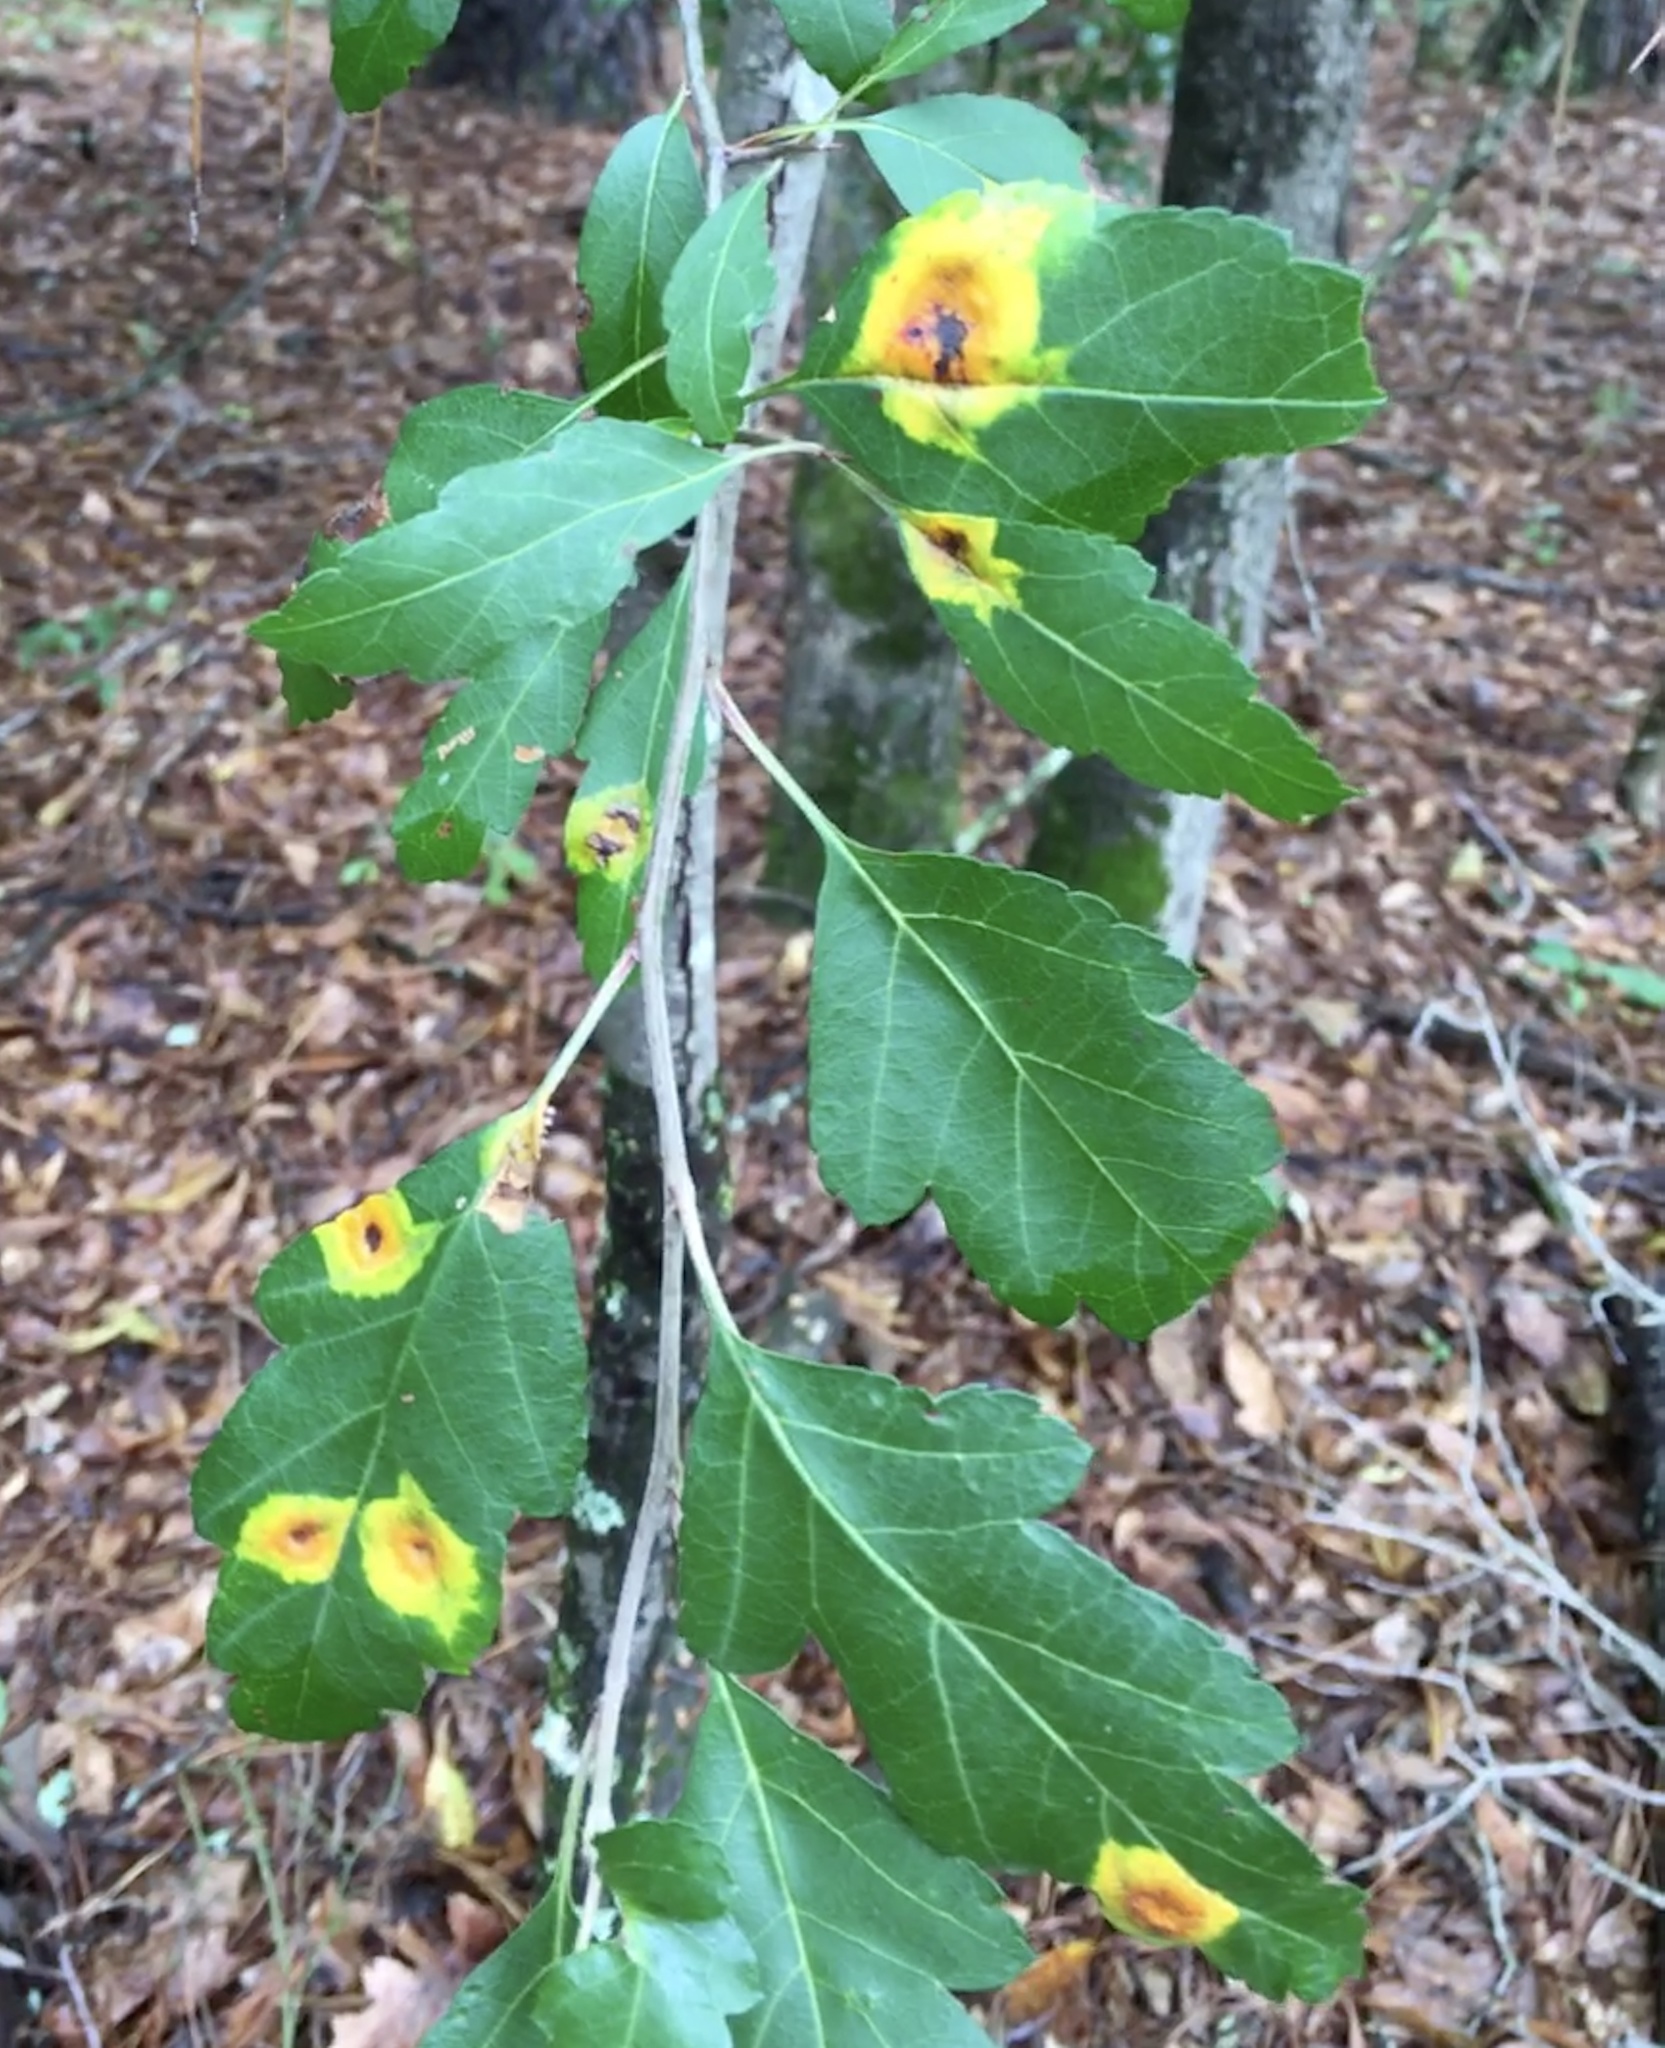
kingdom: Fungi
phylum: Basidiomycota
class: Pucciniomycetes
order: Pucciniales
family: Gymnosporangiaceae
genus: Gymnosporangium
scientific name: Gymnosporangium juniperi-virginianae
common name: Juniper-apple rust
